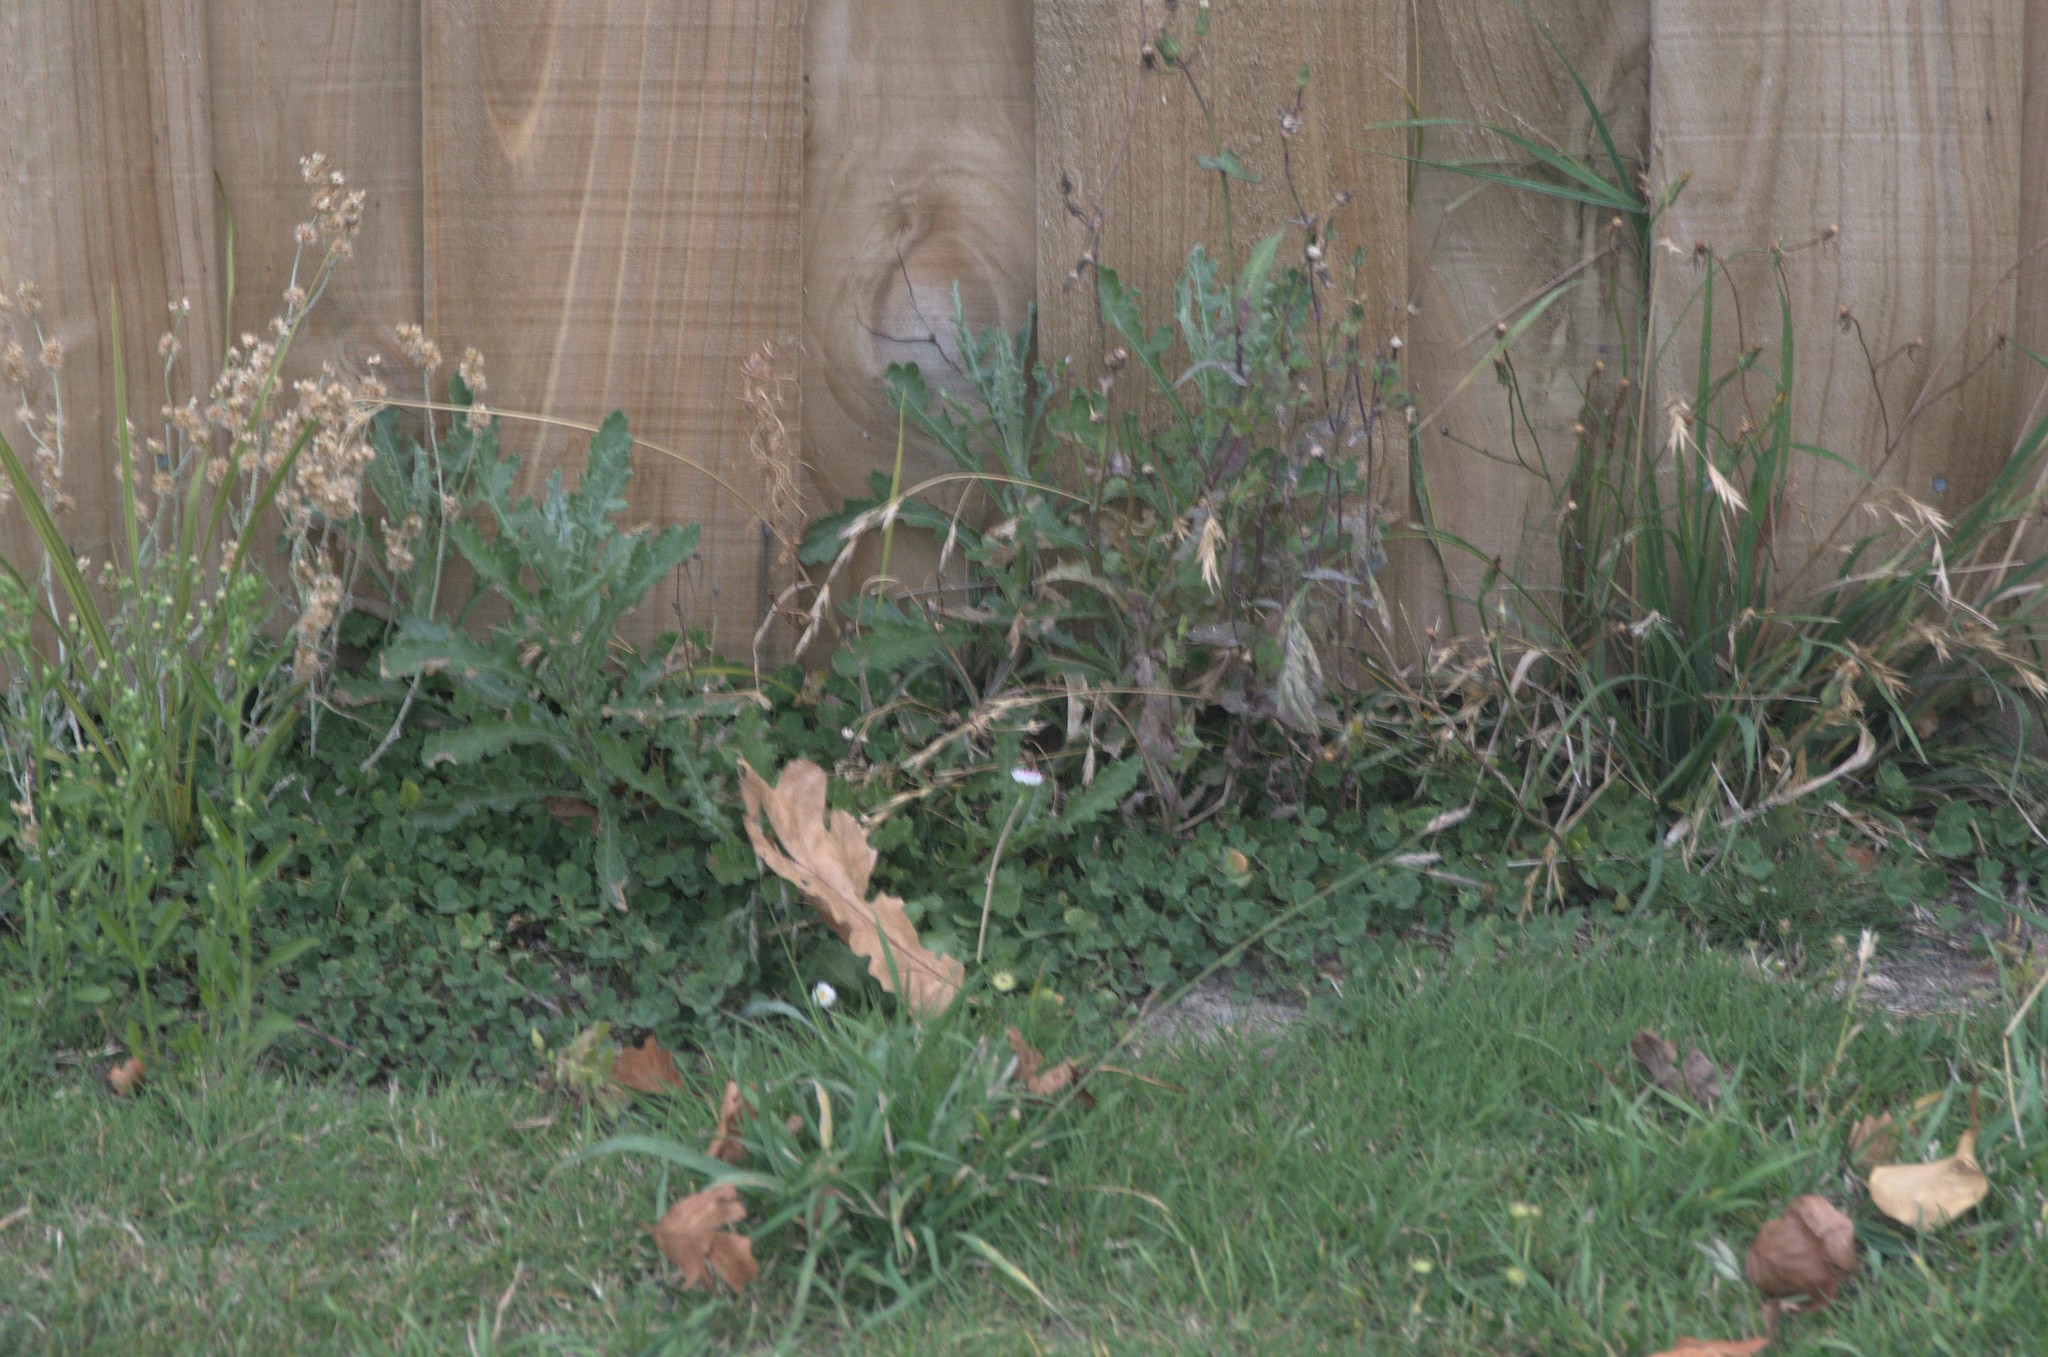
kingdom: Plantae
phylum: Tracheophyta
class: Magnoliopsida
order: Asterales
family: Asteraceae
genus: Senecio
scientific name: Senecio glomeratus
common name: Cutleaf burnweed
